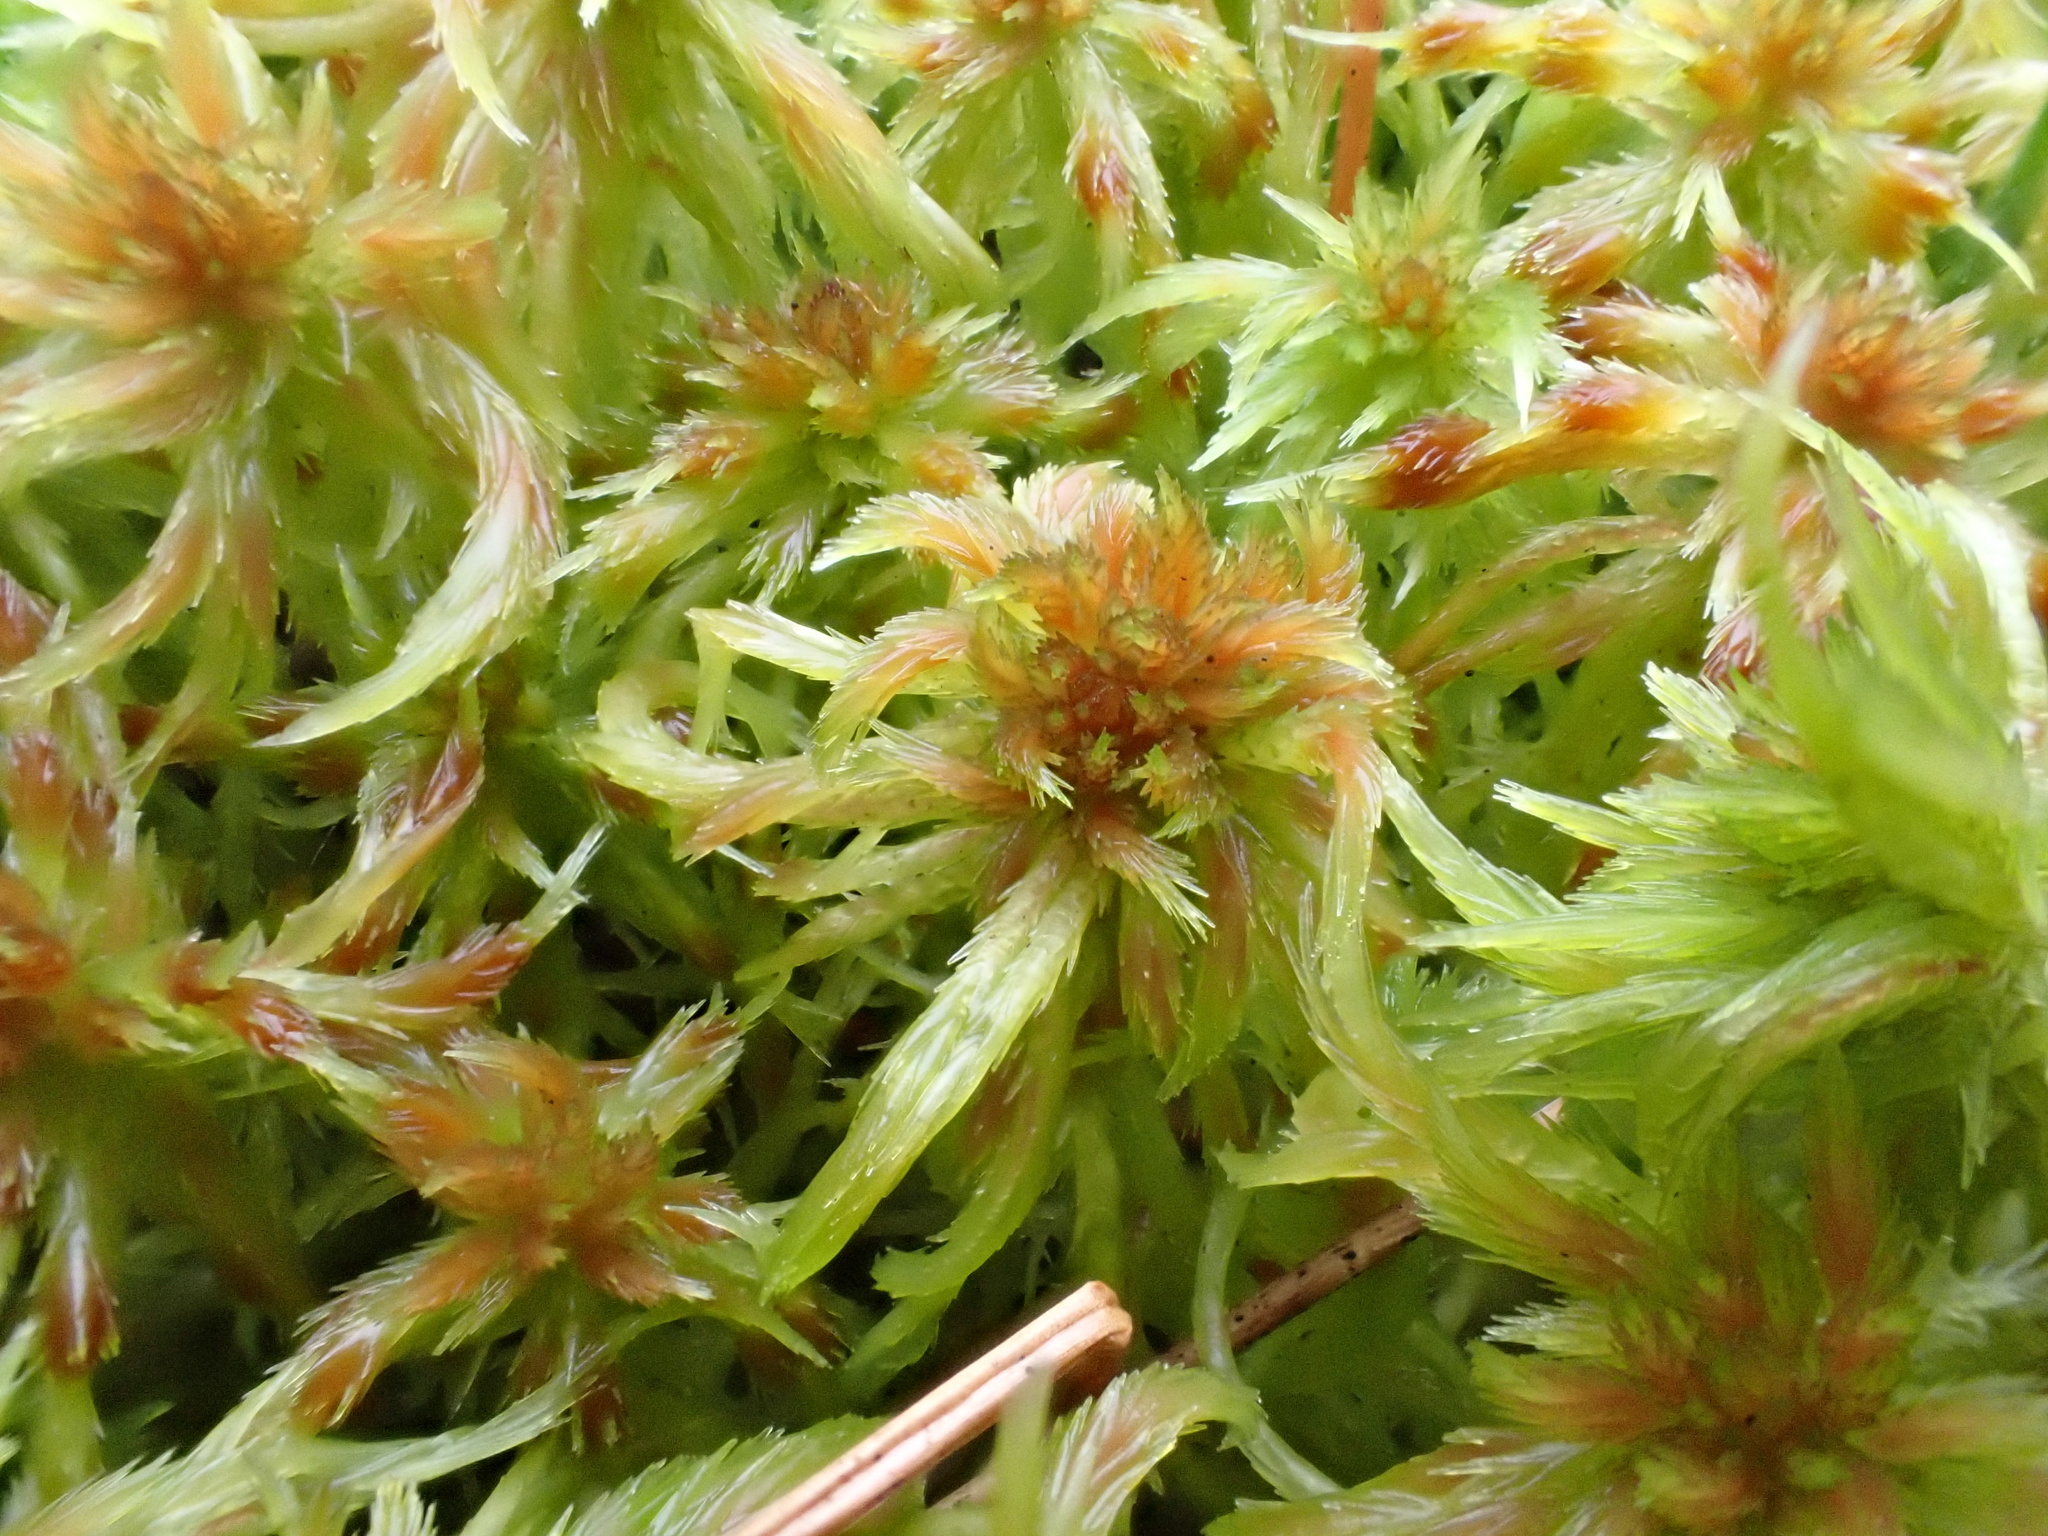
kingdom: Plantae
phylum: Bryophyta
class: Sphagnopsida
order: Sphagnales
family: Sphagnaceae
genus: Sphagnum
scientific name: Sphagnum cuspidatum
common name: Feathery peat moss
